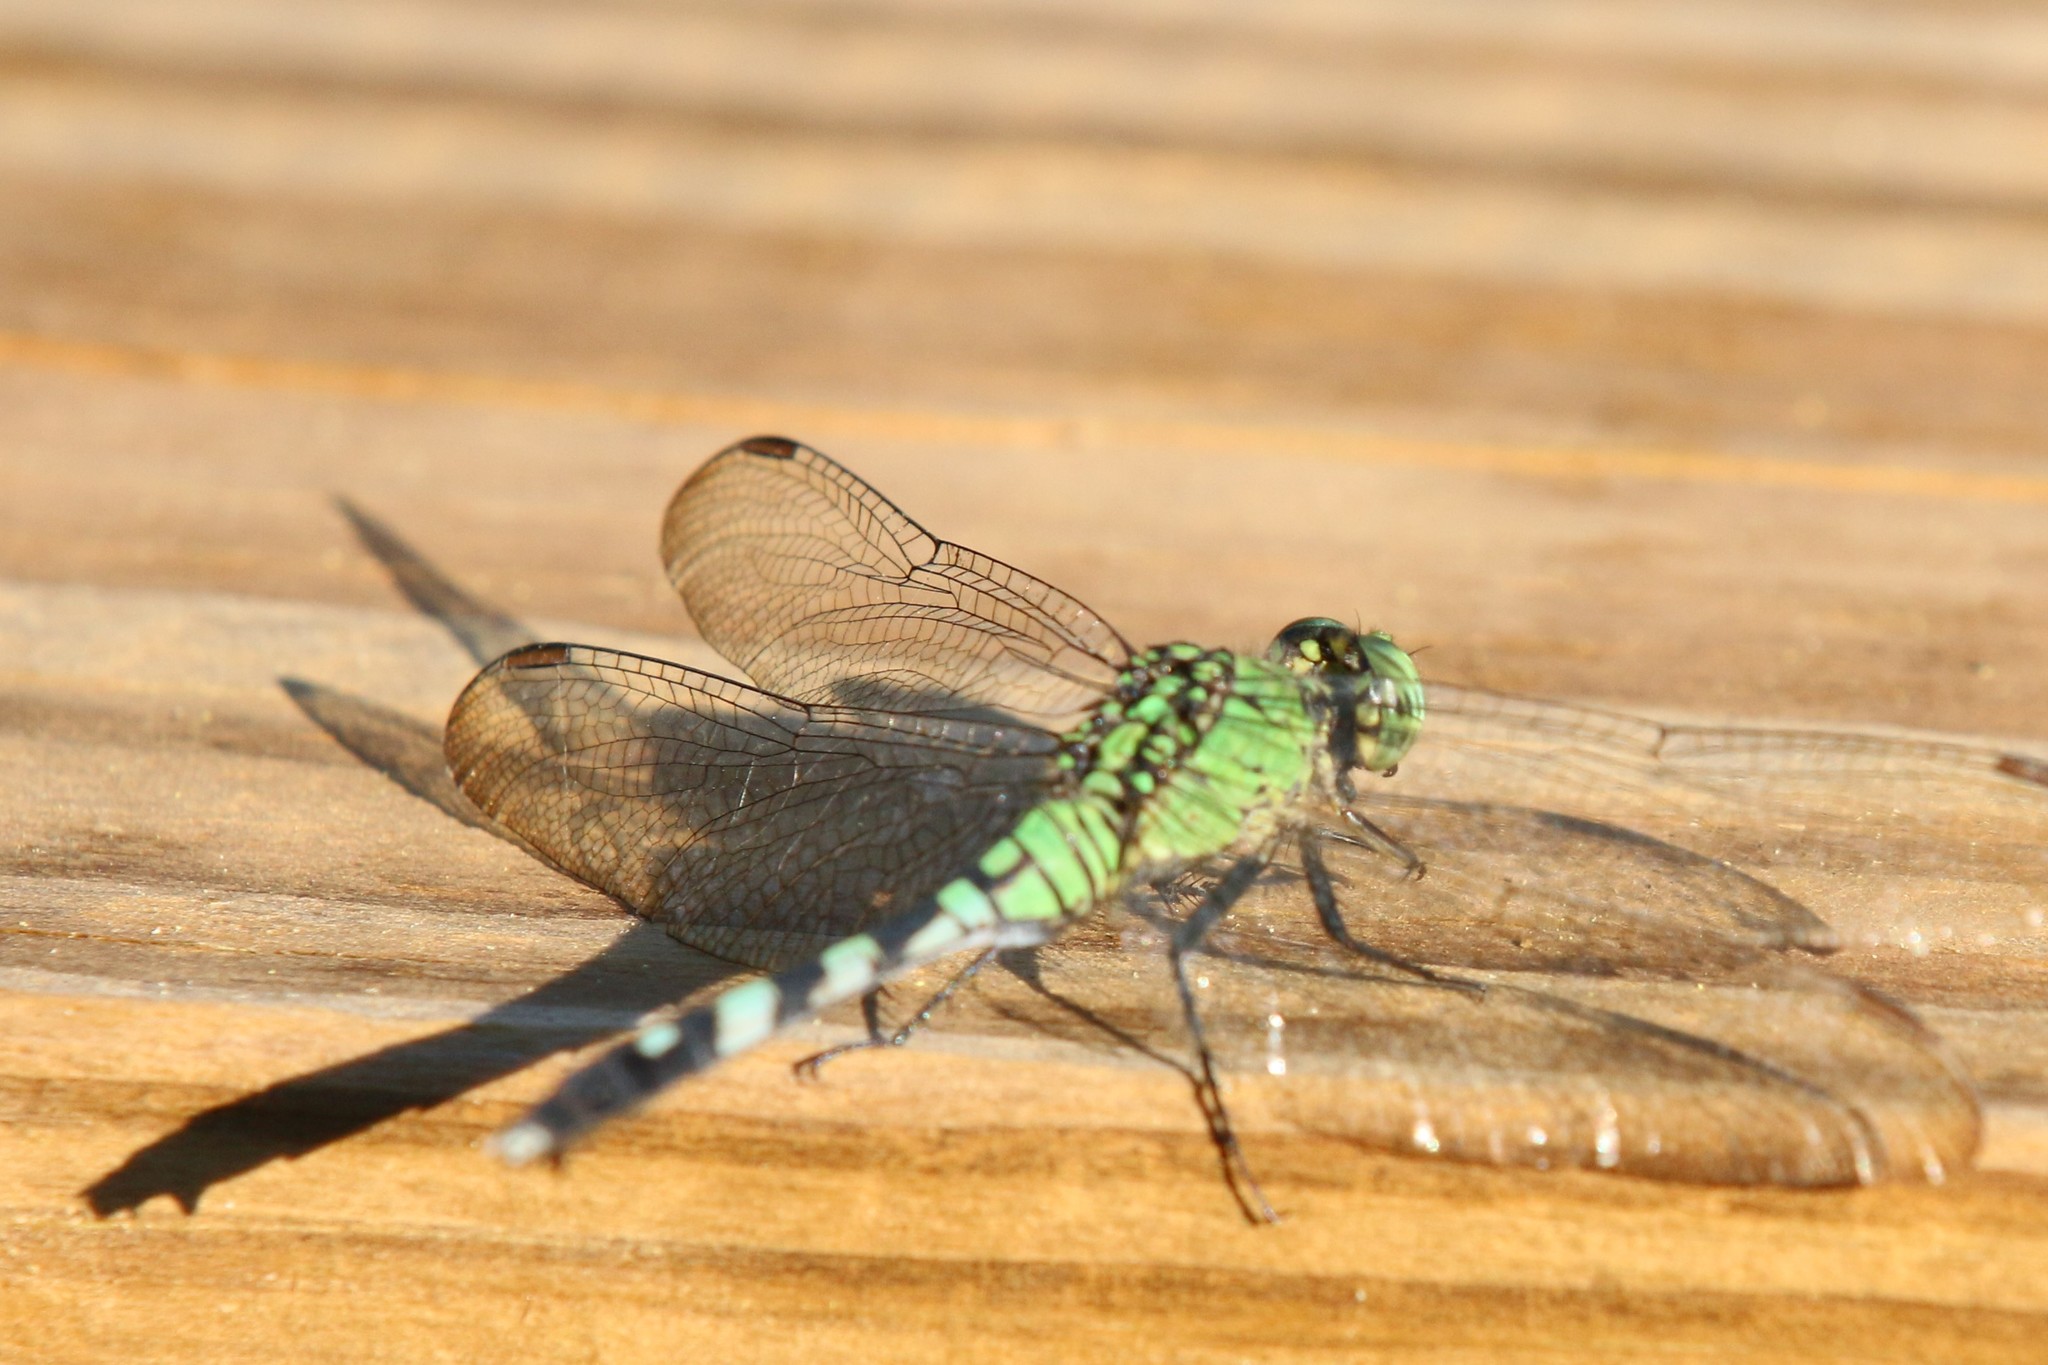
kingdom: Animalia
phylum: Arthropoda
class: Insecta
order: Odonata
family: Libellulidae
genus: Erythemis
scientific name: Erythemis simplicicollis
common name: Eastern pondhawk
